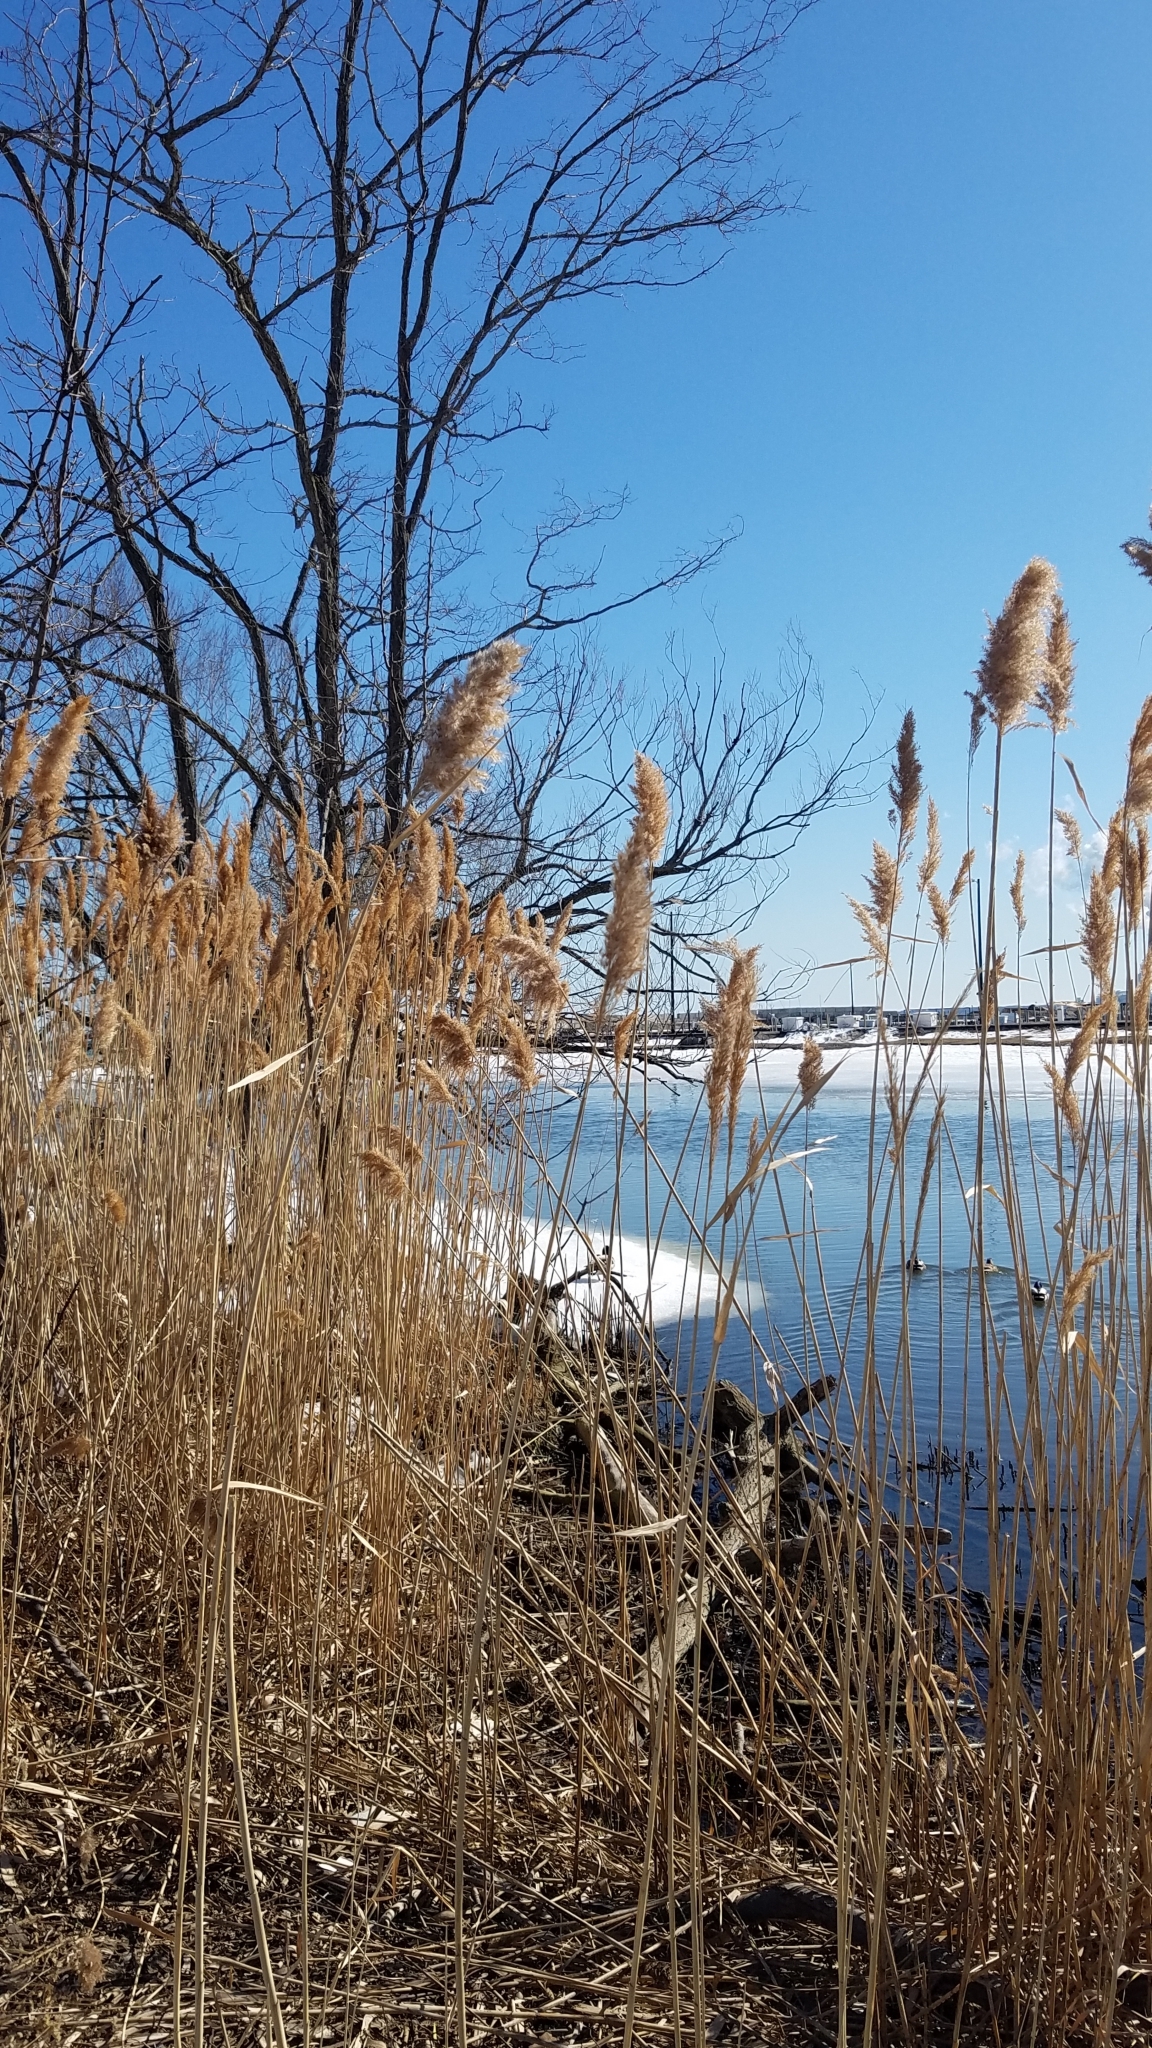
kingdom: Plantae
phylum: Tracheophyta
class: Liliopsida
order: Poales
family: Poaceae
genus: Phragmites
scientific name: Phragmites australis
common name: Common reed
